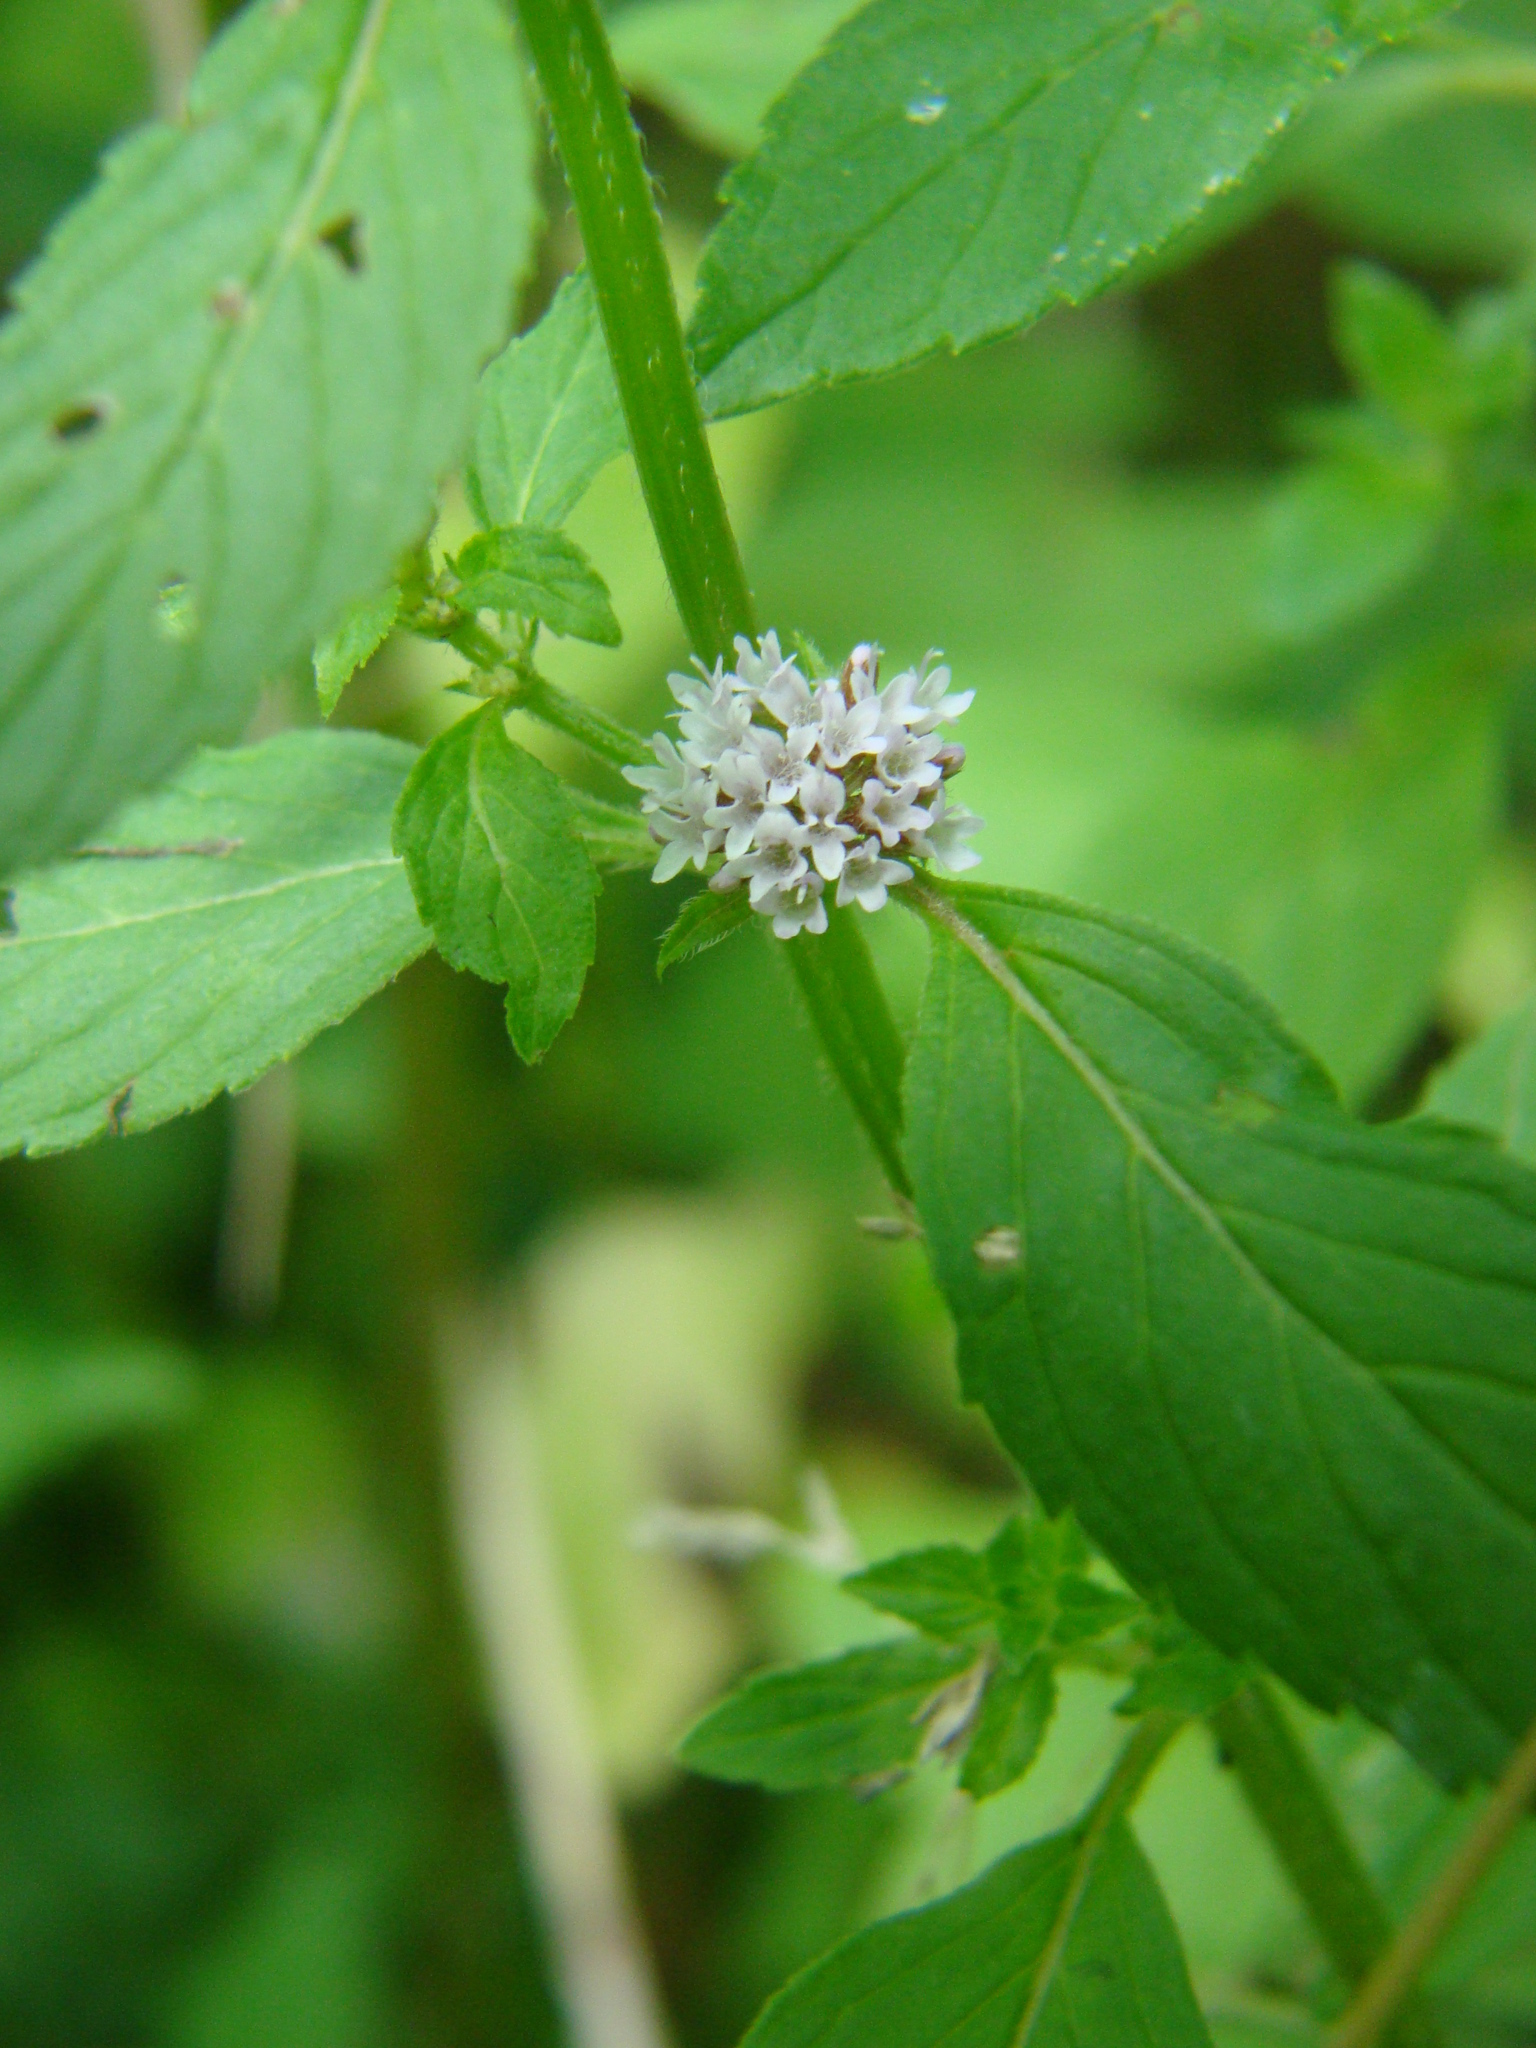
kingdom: Plantae
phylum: Tracheophyta
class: Magnoliopsida
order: Lamiales
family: Lamiaceae
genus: Mentha
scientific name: Mentha canadensis
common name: American corn mint
